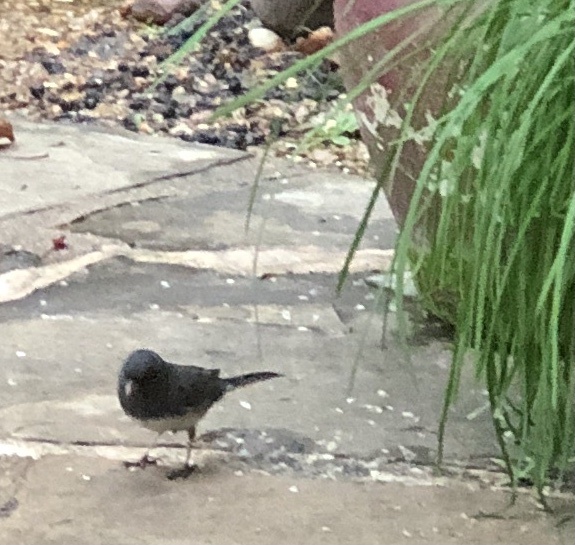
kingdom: Animalia
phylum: Chordata
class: Aves
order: Passeriformes
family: Passerellidae
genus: Junco
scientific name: Junco hyemalis
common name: Dark-eyed junco
